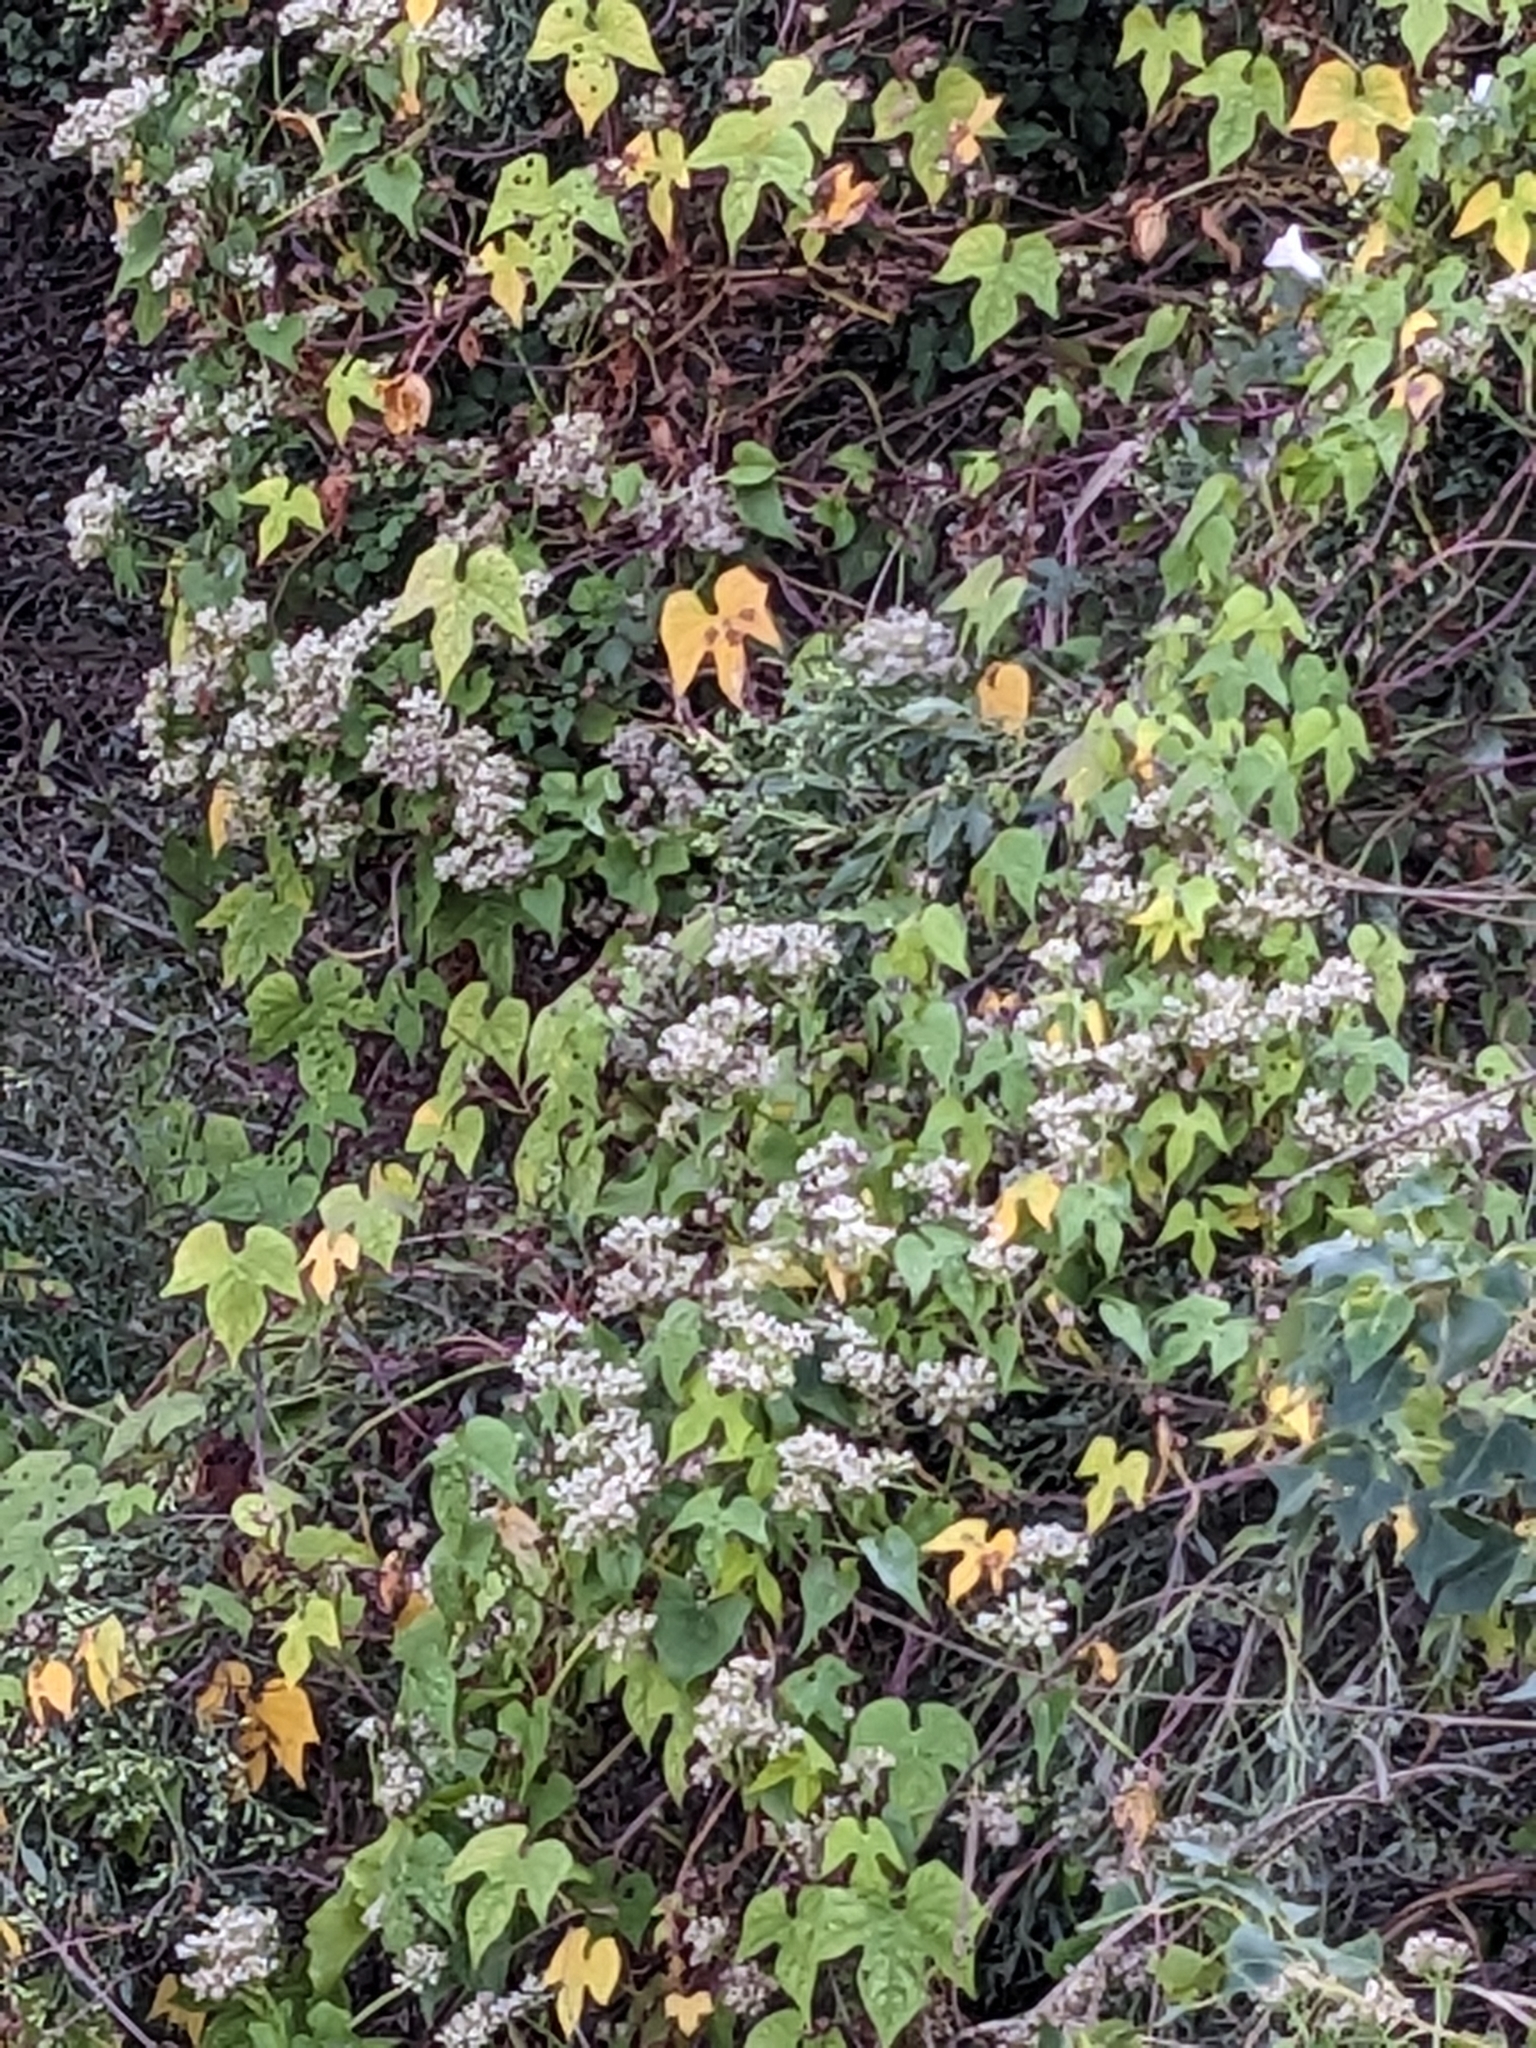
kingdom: Plantae
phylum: Tracheophyta
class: Magnoliopsida
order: Solanales
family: Convolvulaceae
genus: Ipomoea
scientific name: Ipomoea cordatotriloba
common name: Cotton morning glory
